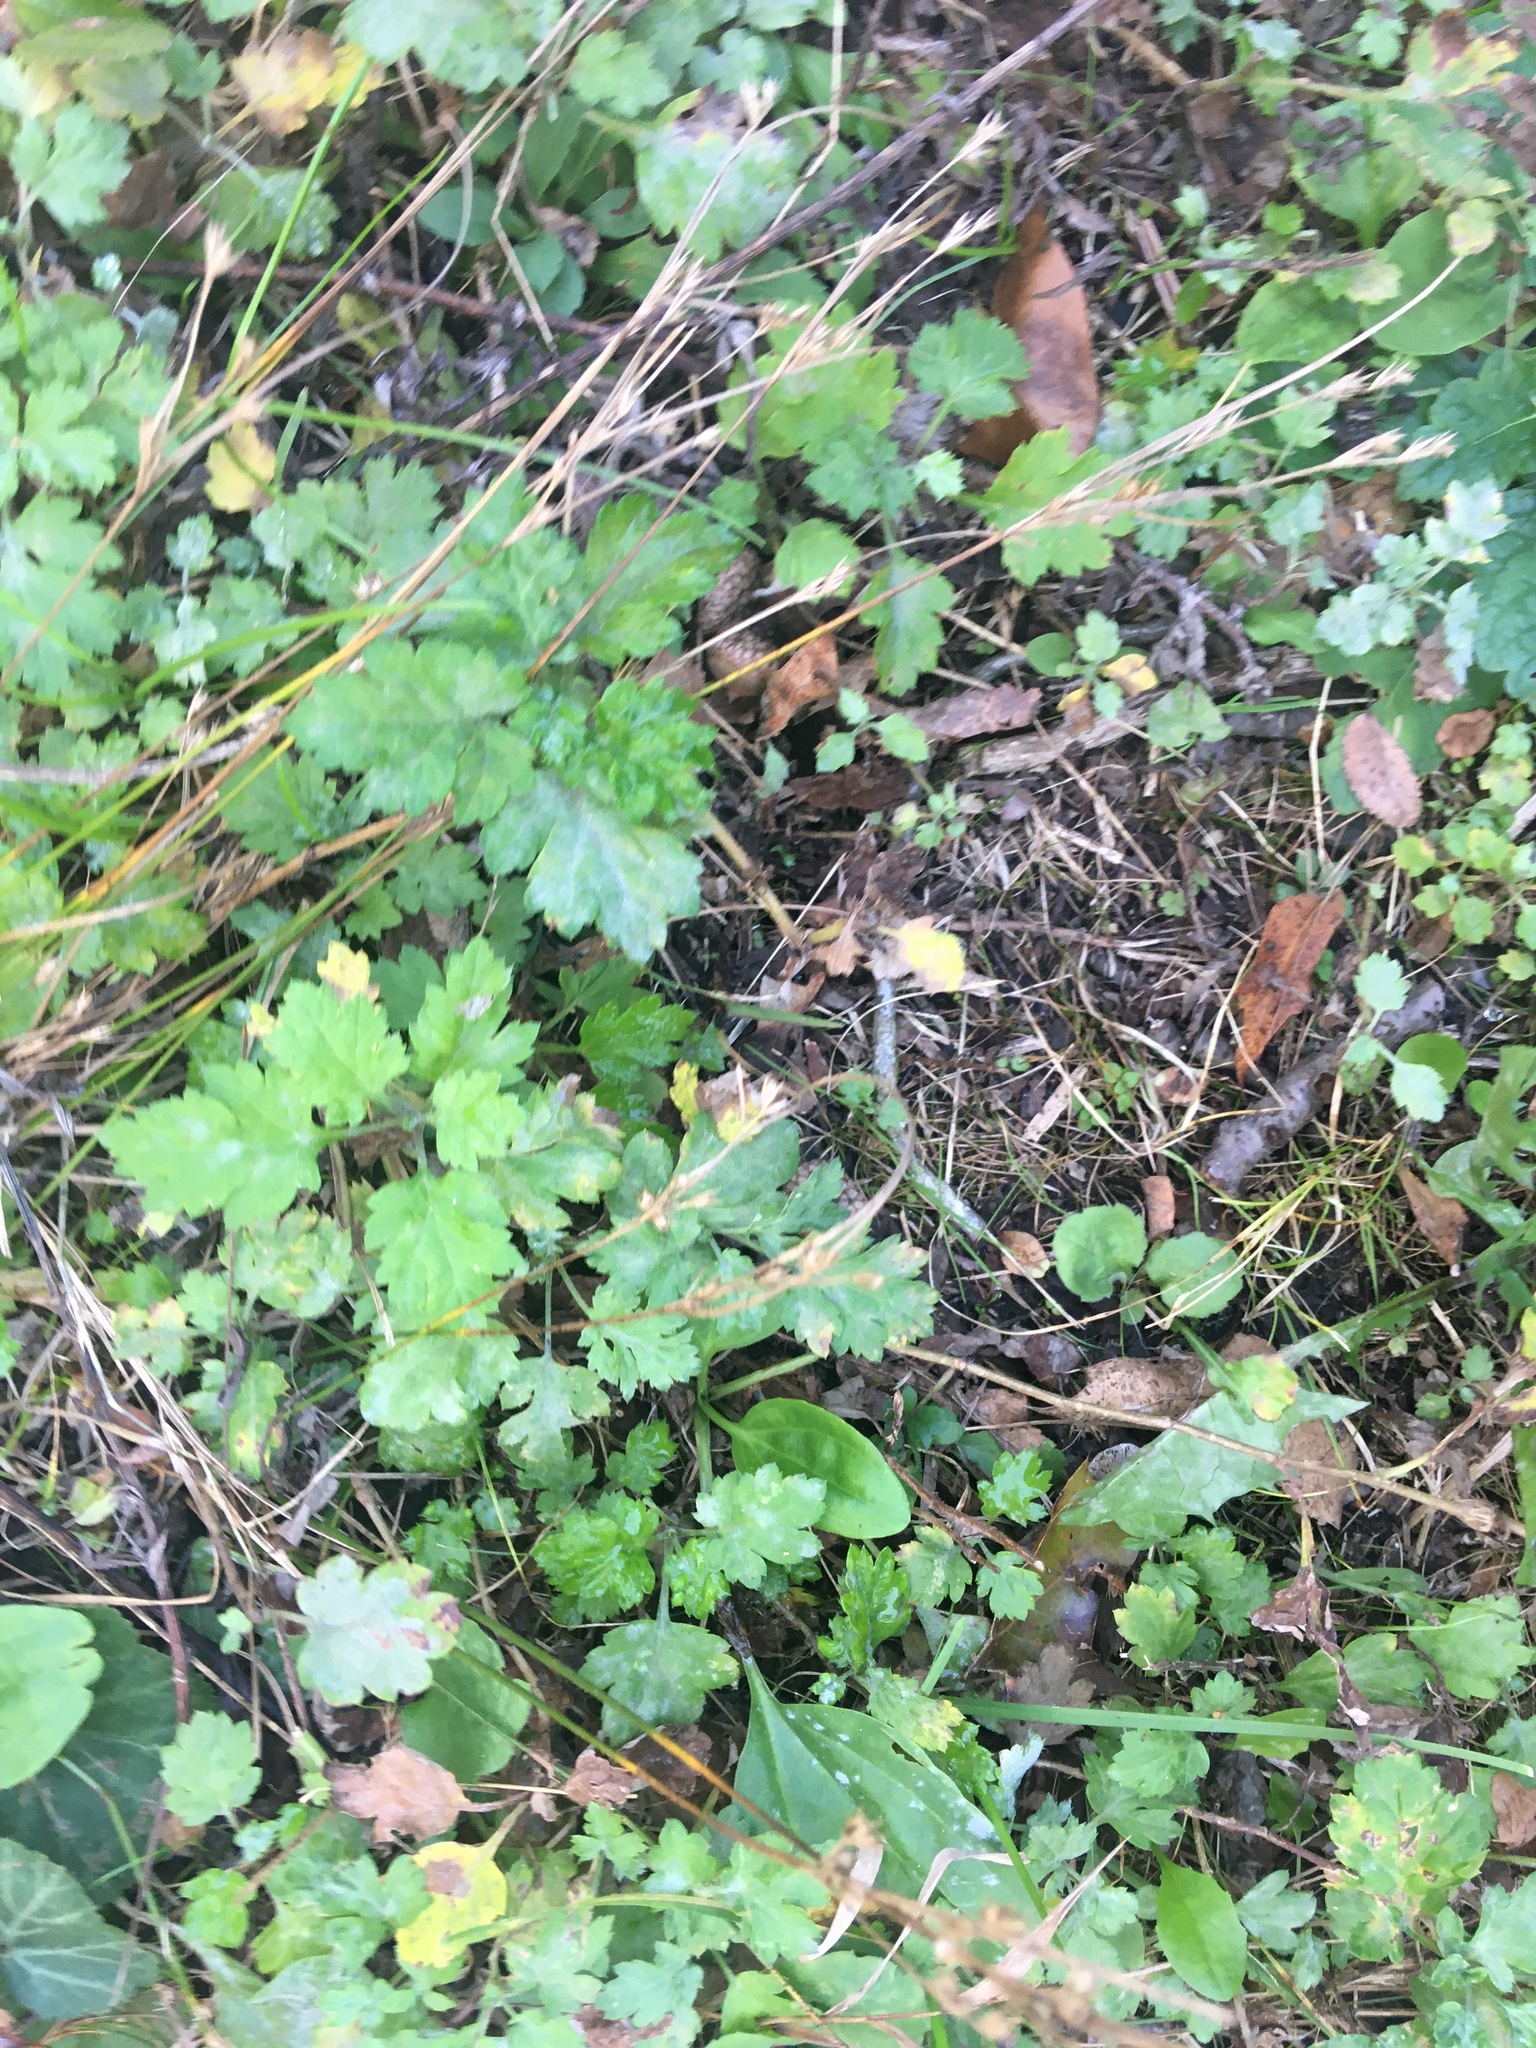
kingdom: Plantae
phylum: Tracheophyta
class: Magnoliopsida
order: Asterales
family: Asteraceae
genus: Artemisia
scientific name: Artemisia vulgaris
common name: Mugwort
